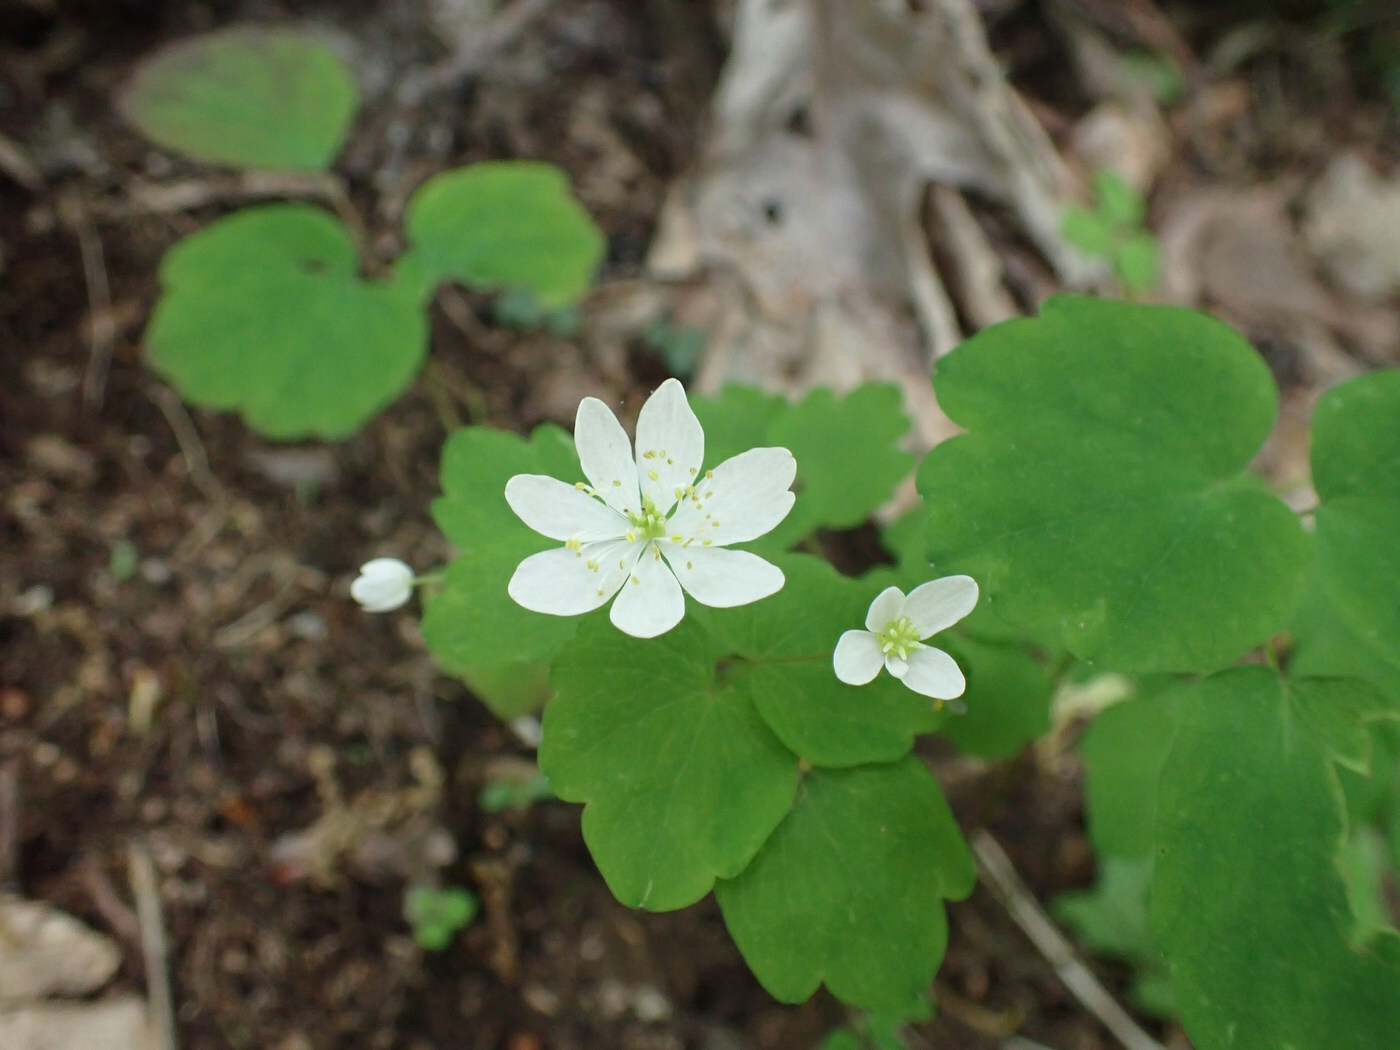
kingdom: Plantae
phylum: Tracheophyta
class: Magnoliopsida
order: Ranunculales
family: Ranunculaceae
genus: Thalictrum
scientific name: Thalictrum thalictroides
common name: Rue-anemone
